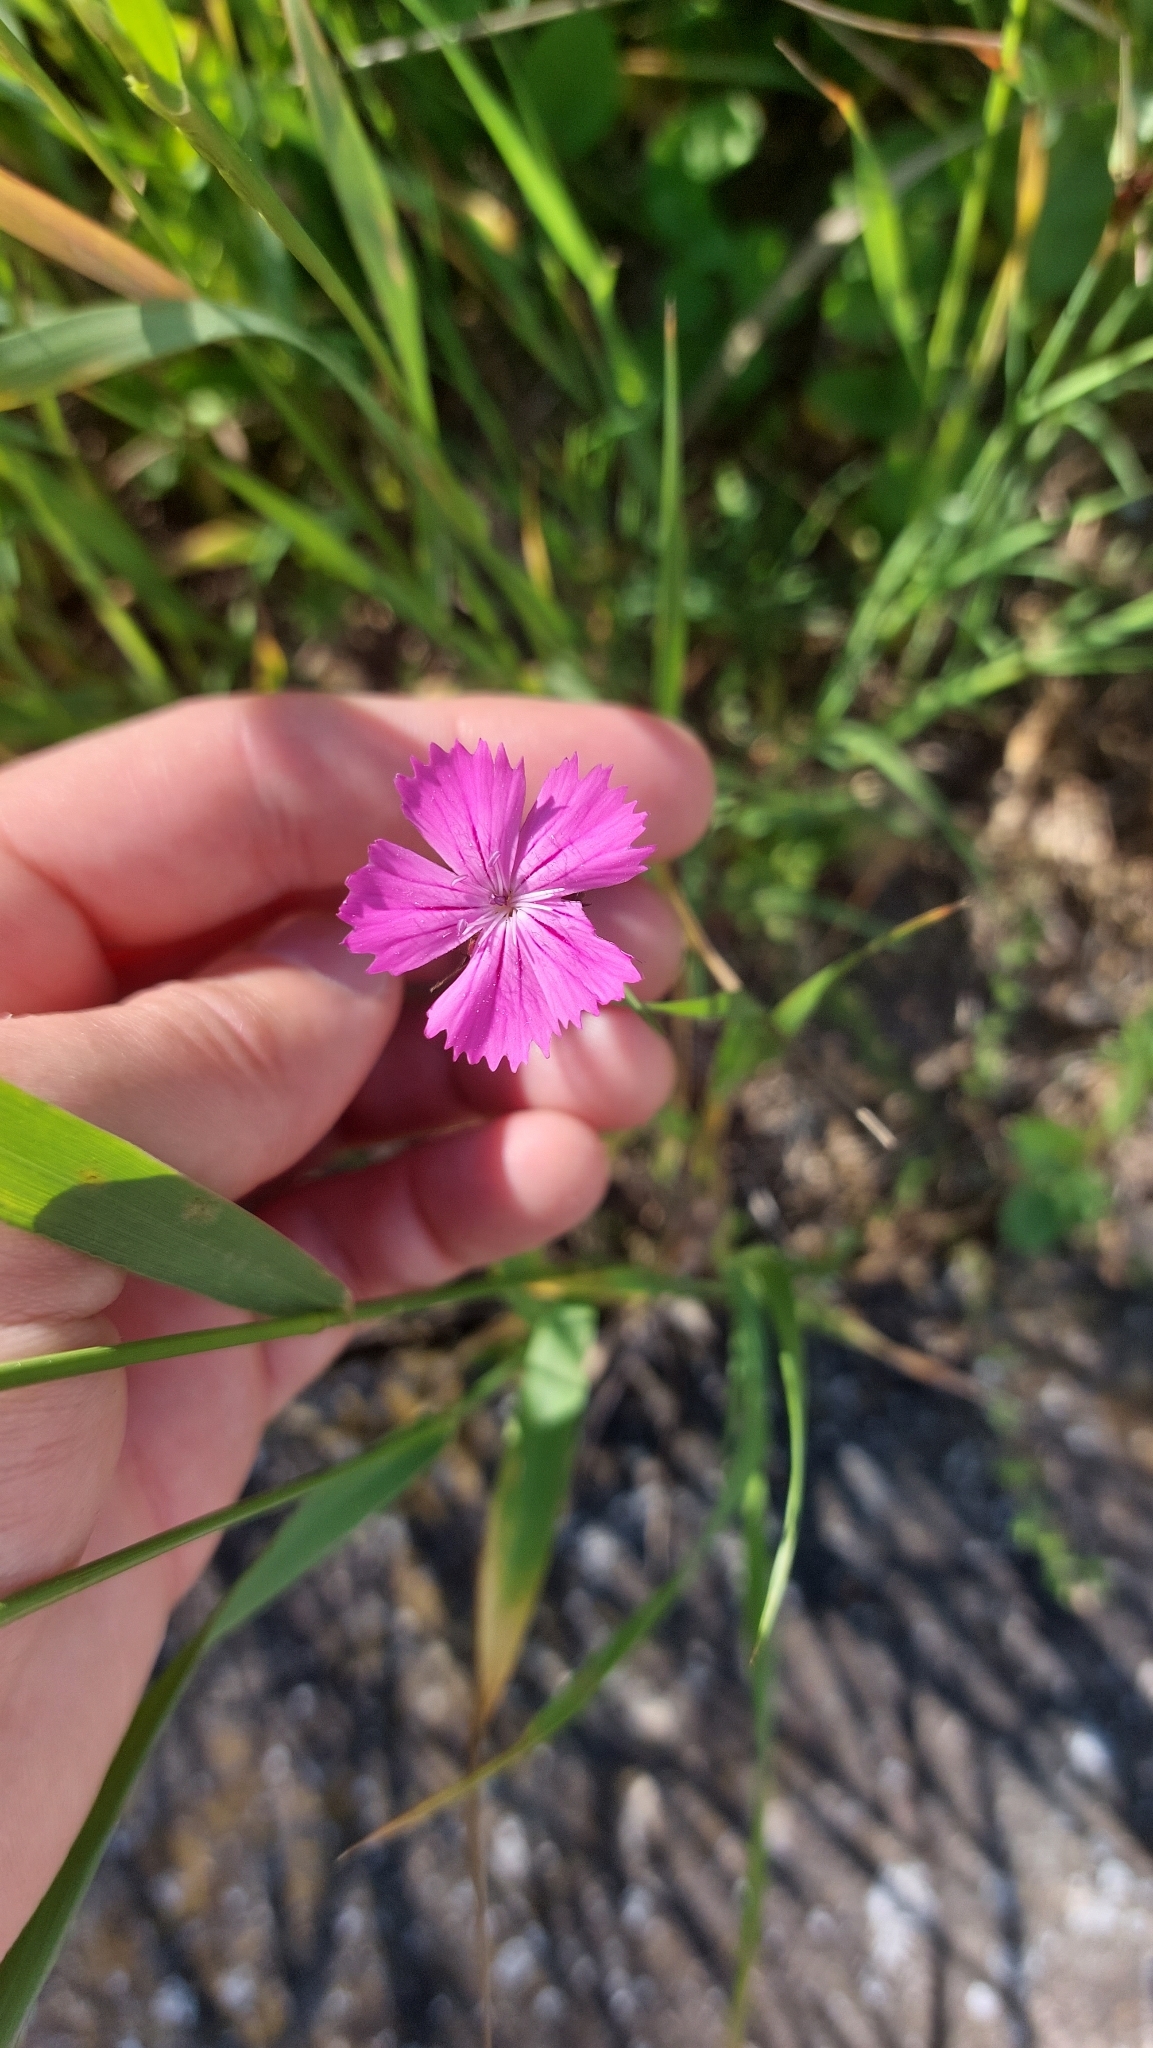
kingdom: Plantae
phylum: Tracheophyta
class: Magnoliopsida
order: Caryophyllales
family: Caryophyllaceae
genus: Dianthus
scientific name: Dianthus carthusianorum
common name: Carthusian pink
